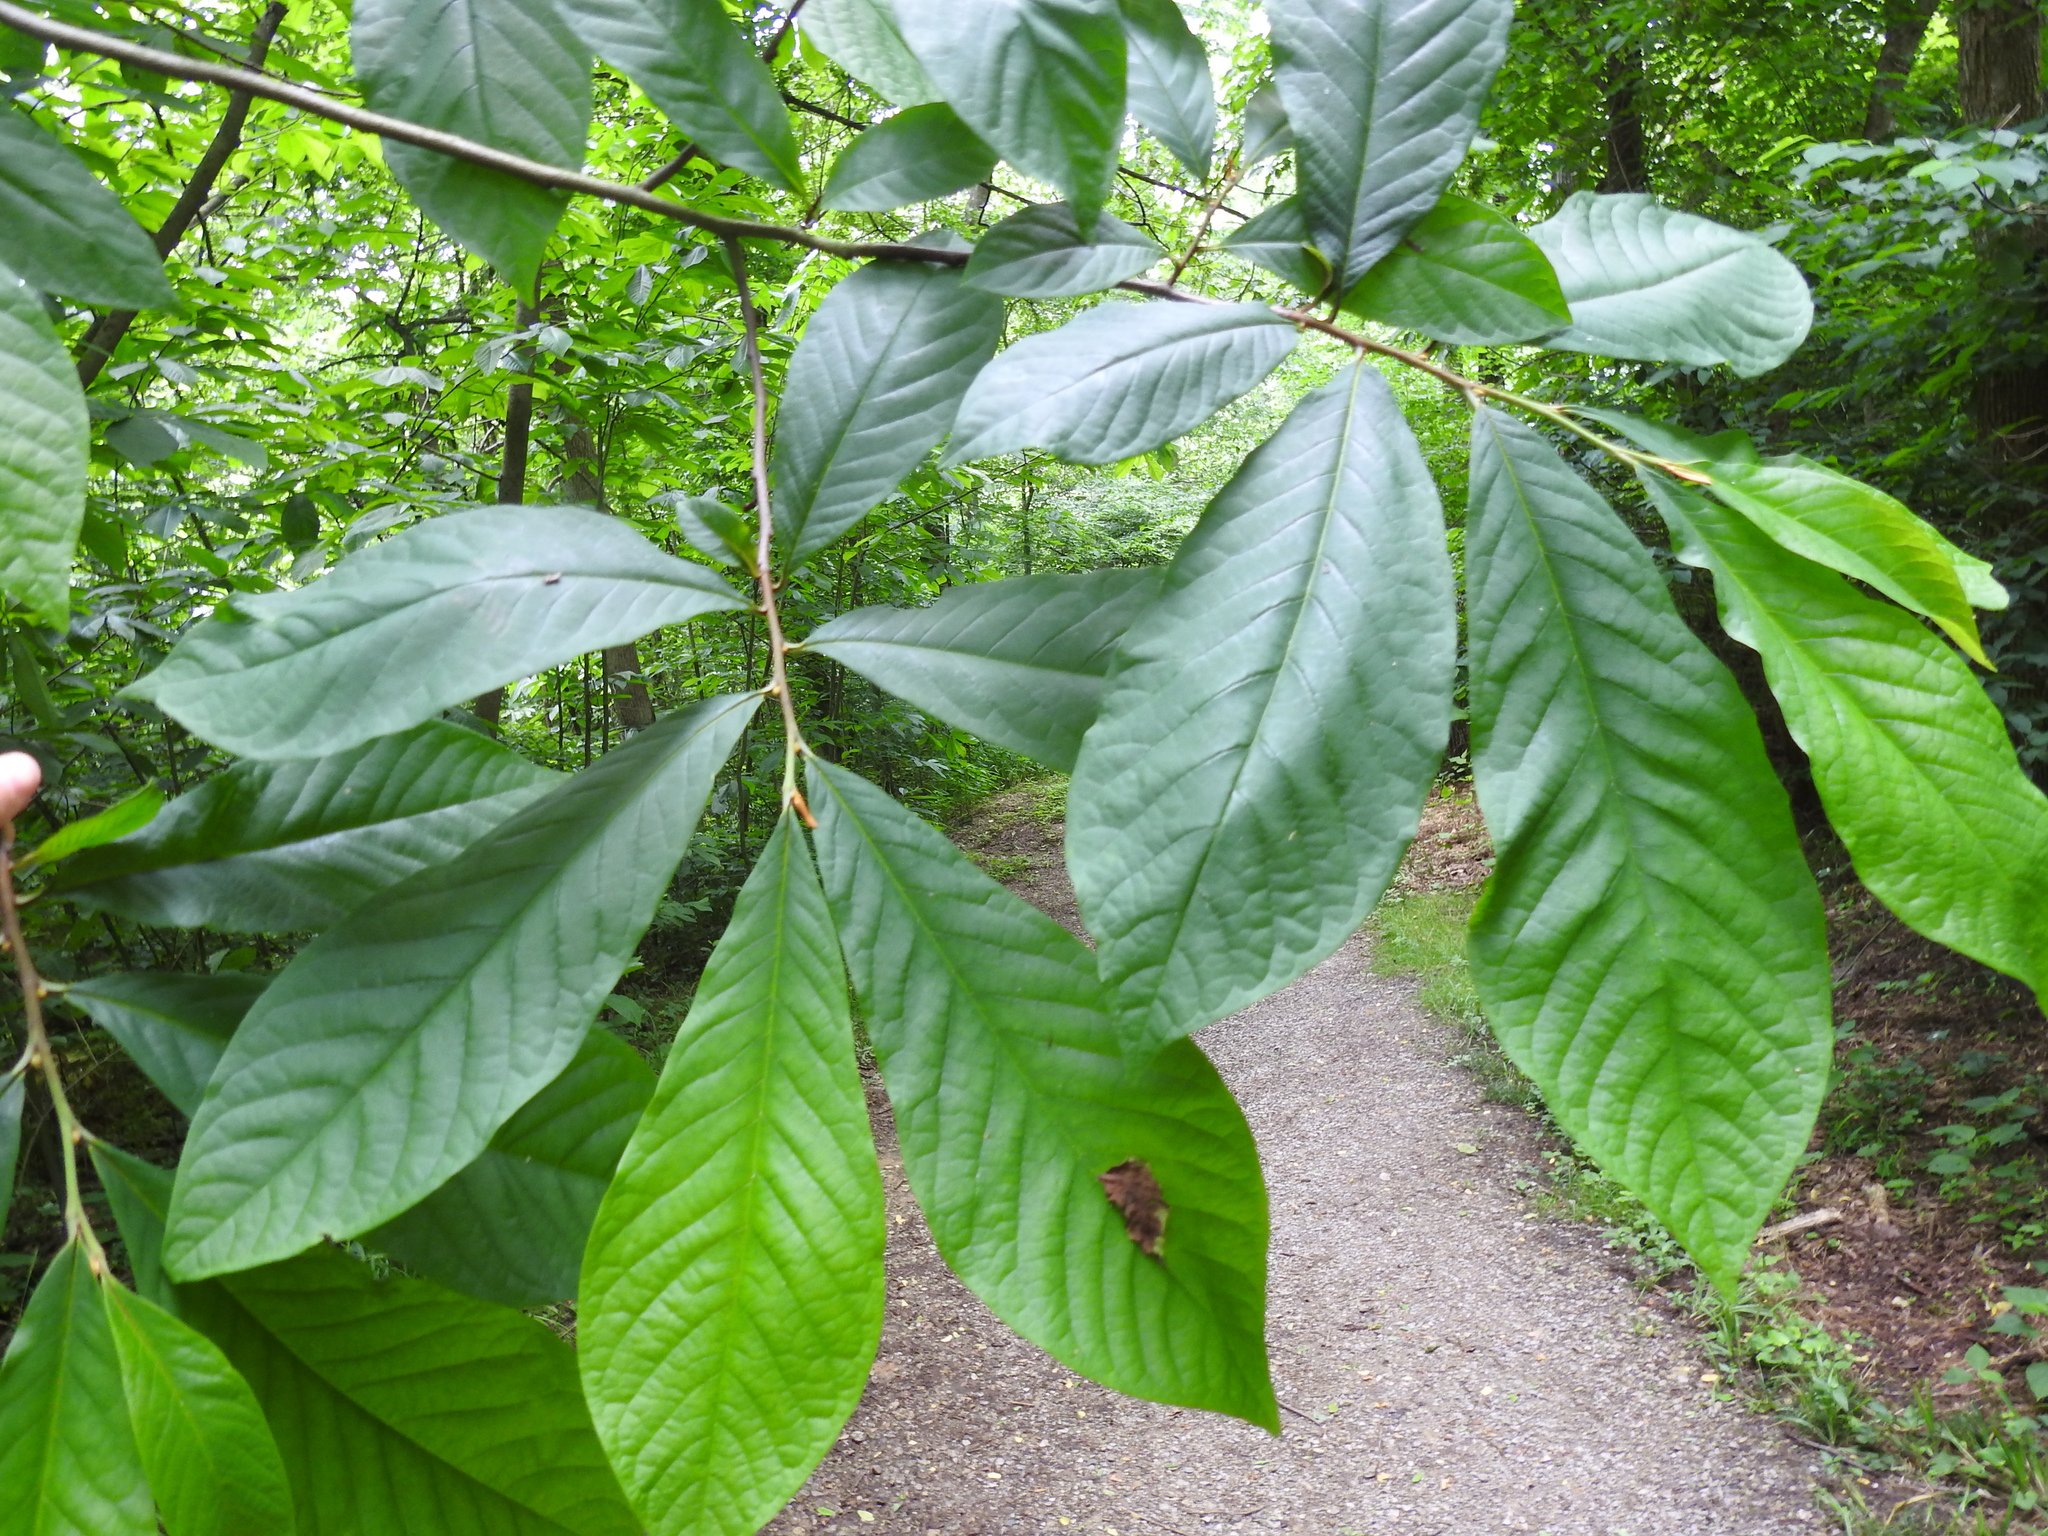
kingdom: Plantae
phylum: Tracheophyta
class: Magnoliopsida
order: Magnoliales
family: Annonaceae
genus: Asimina
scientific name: Asimina triloba
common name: Dog-banana
